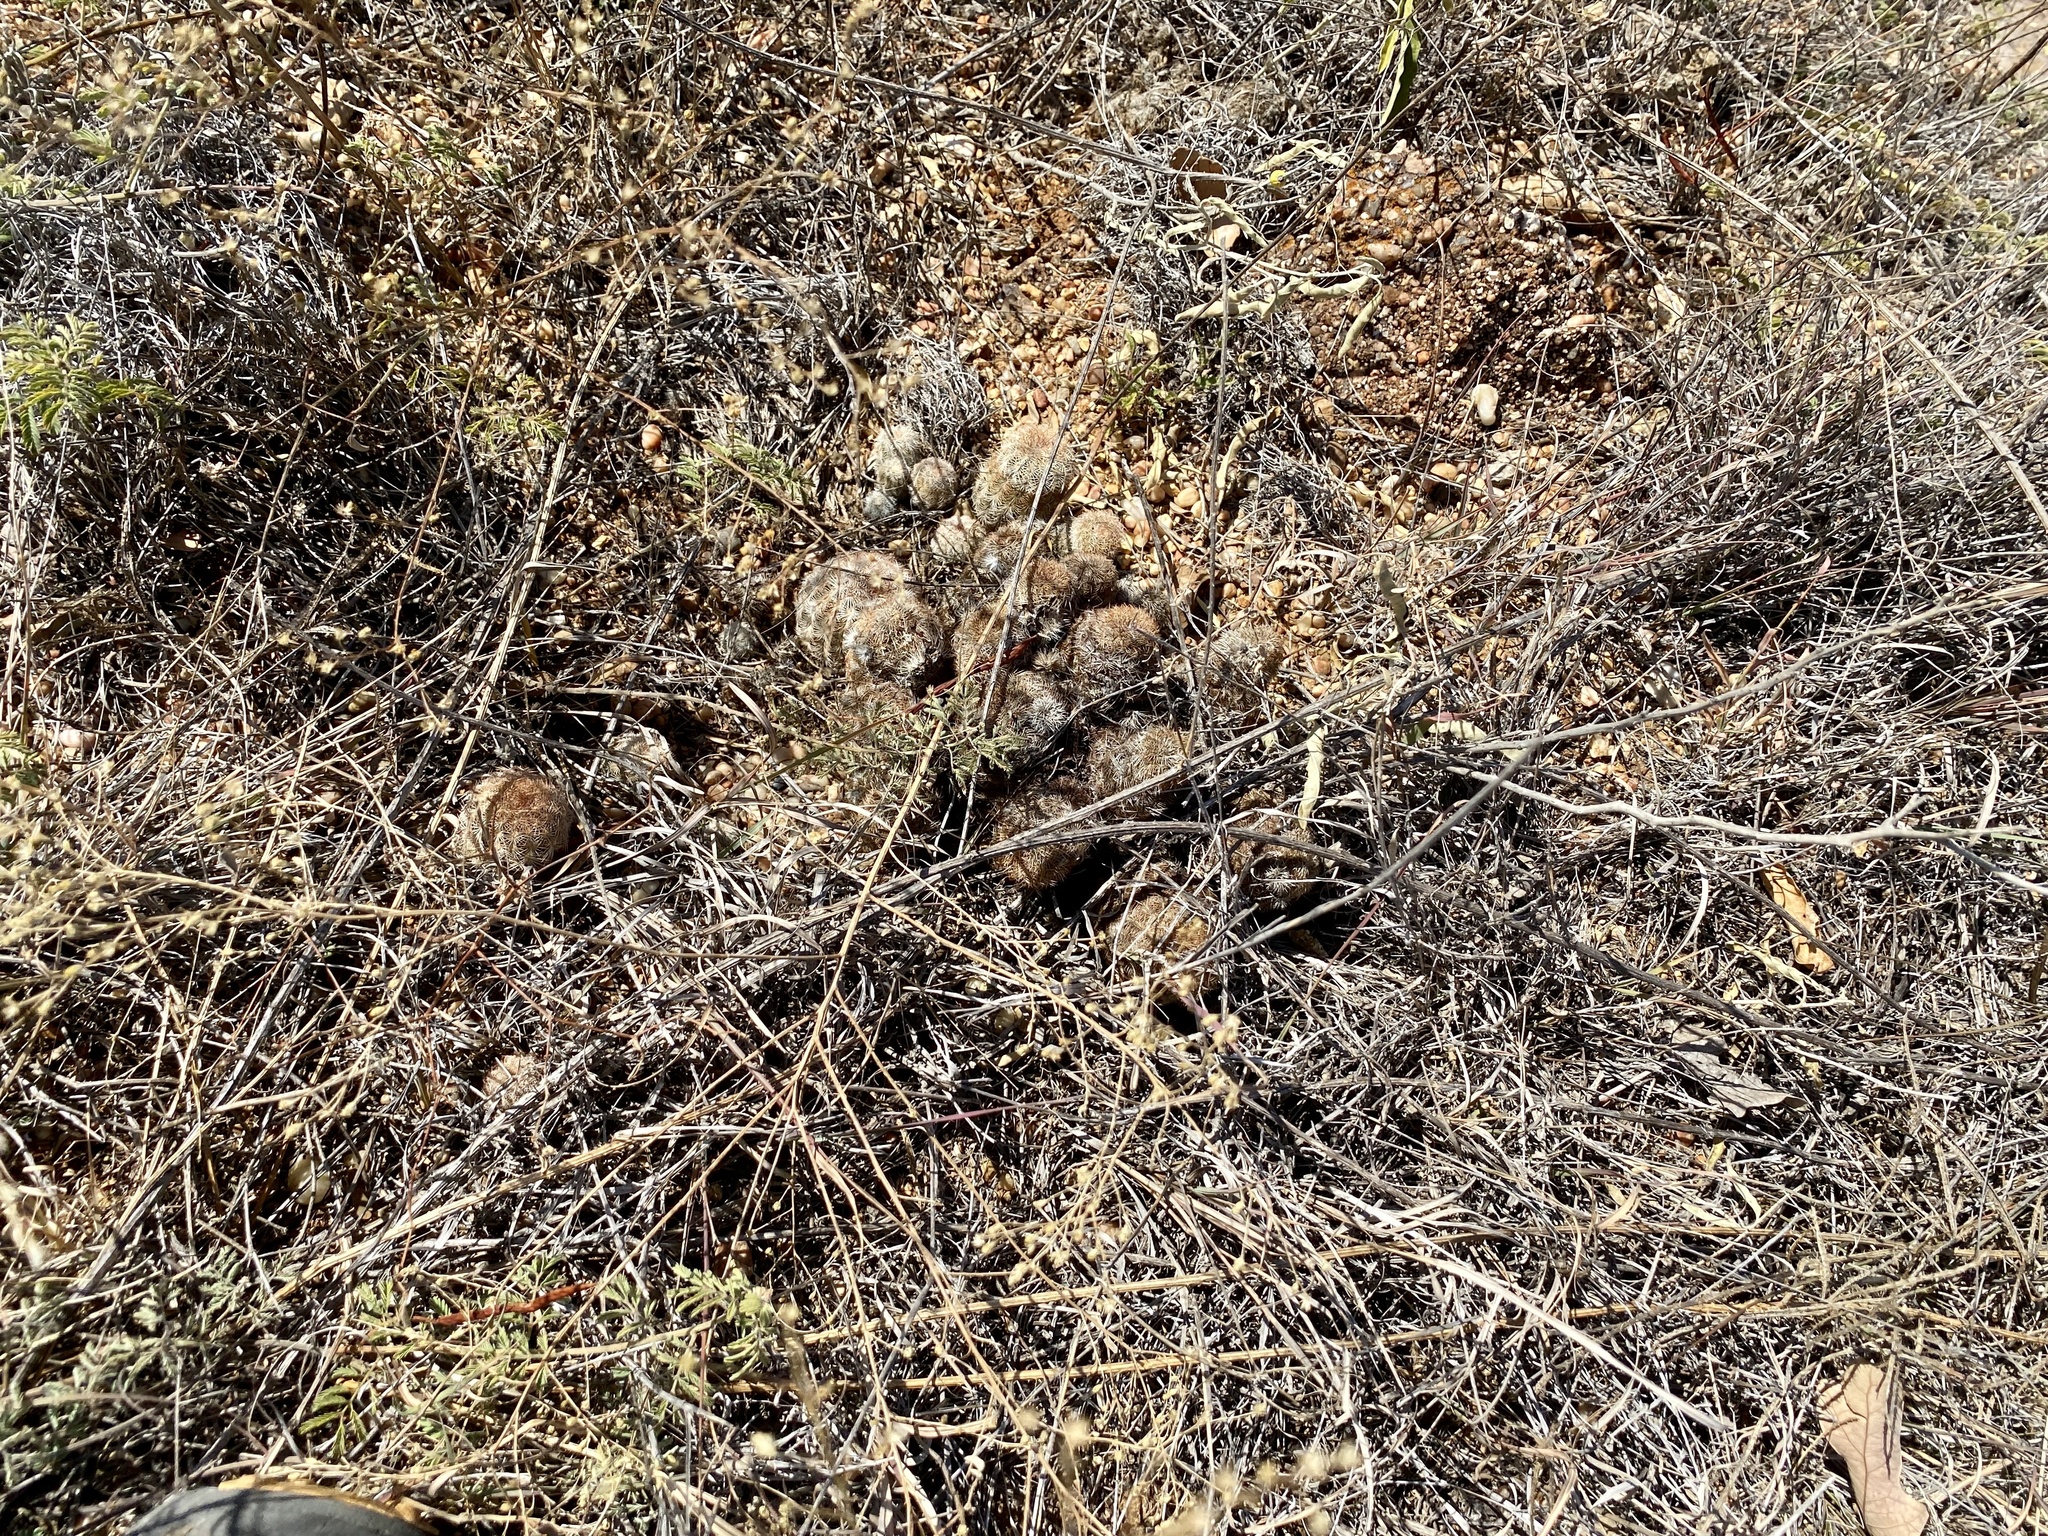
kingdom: Plantae
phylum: Tracheophyta
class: Magnoliopsida
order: Caryophyllales
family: Cactaceae
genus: Echinocereus
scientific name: Echinocereus reichenbachii
